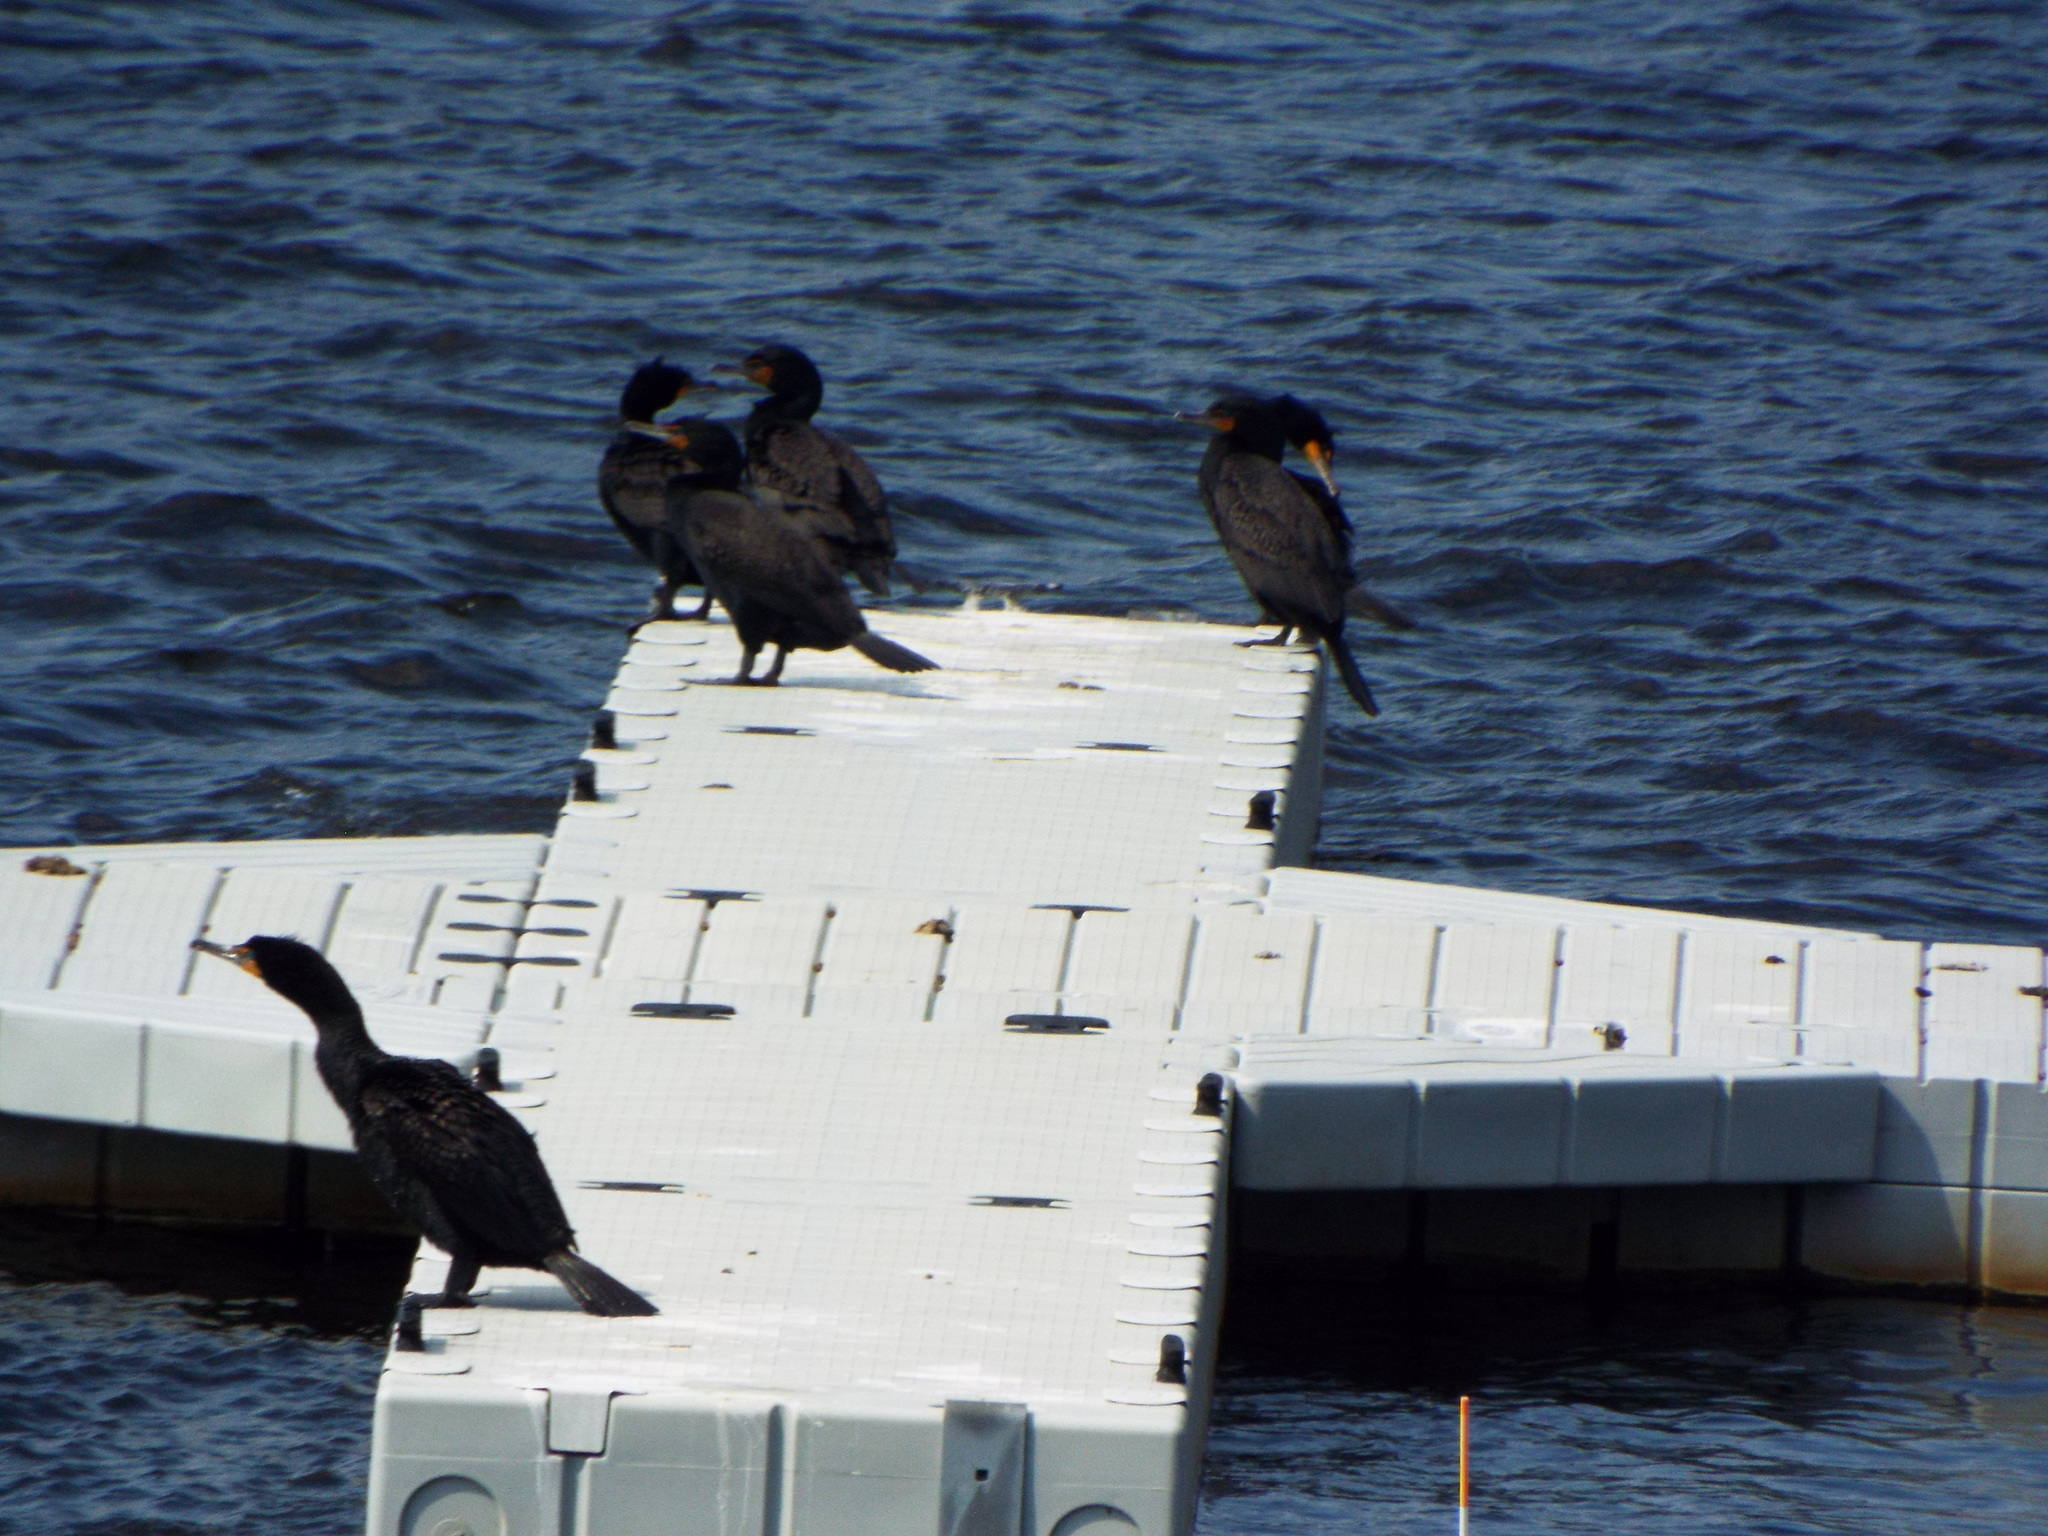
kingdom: Animalia
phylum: Chordata
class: Aves
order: Suliformes
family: Phalacrocoracidae
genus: Phalacrocorax
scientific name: Phalacrocorax auritus
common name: Double-crested cormorant
